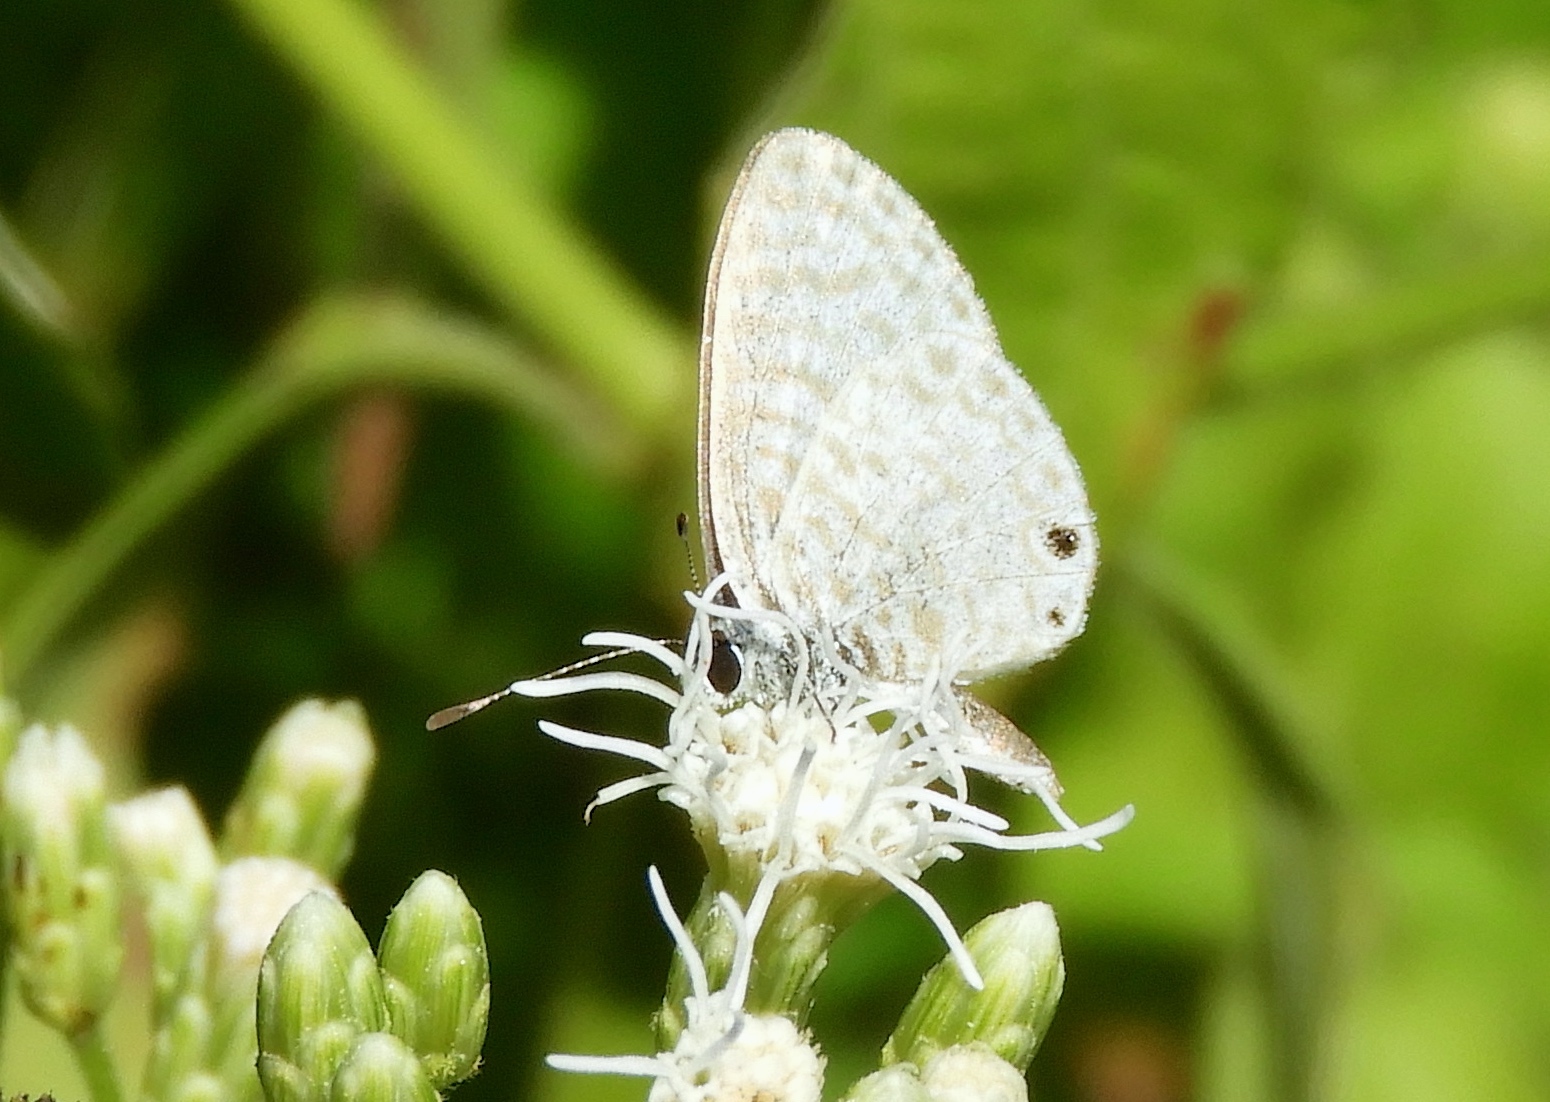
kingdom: Animalia
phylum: Arthropoda
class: Insecta
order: Lepidoptera
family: Lycaenidae
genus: Leptotes
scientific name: Leptotes
